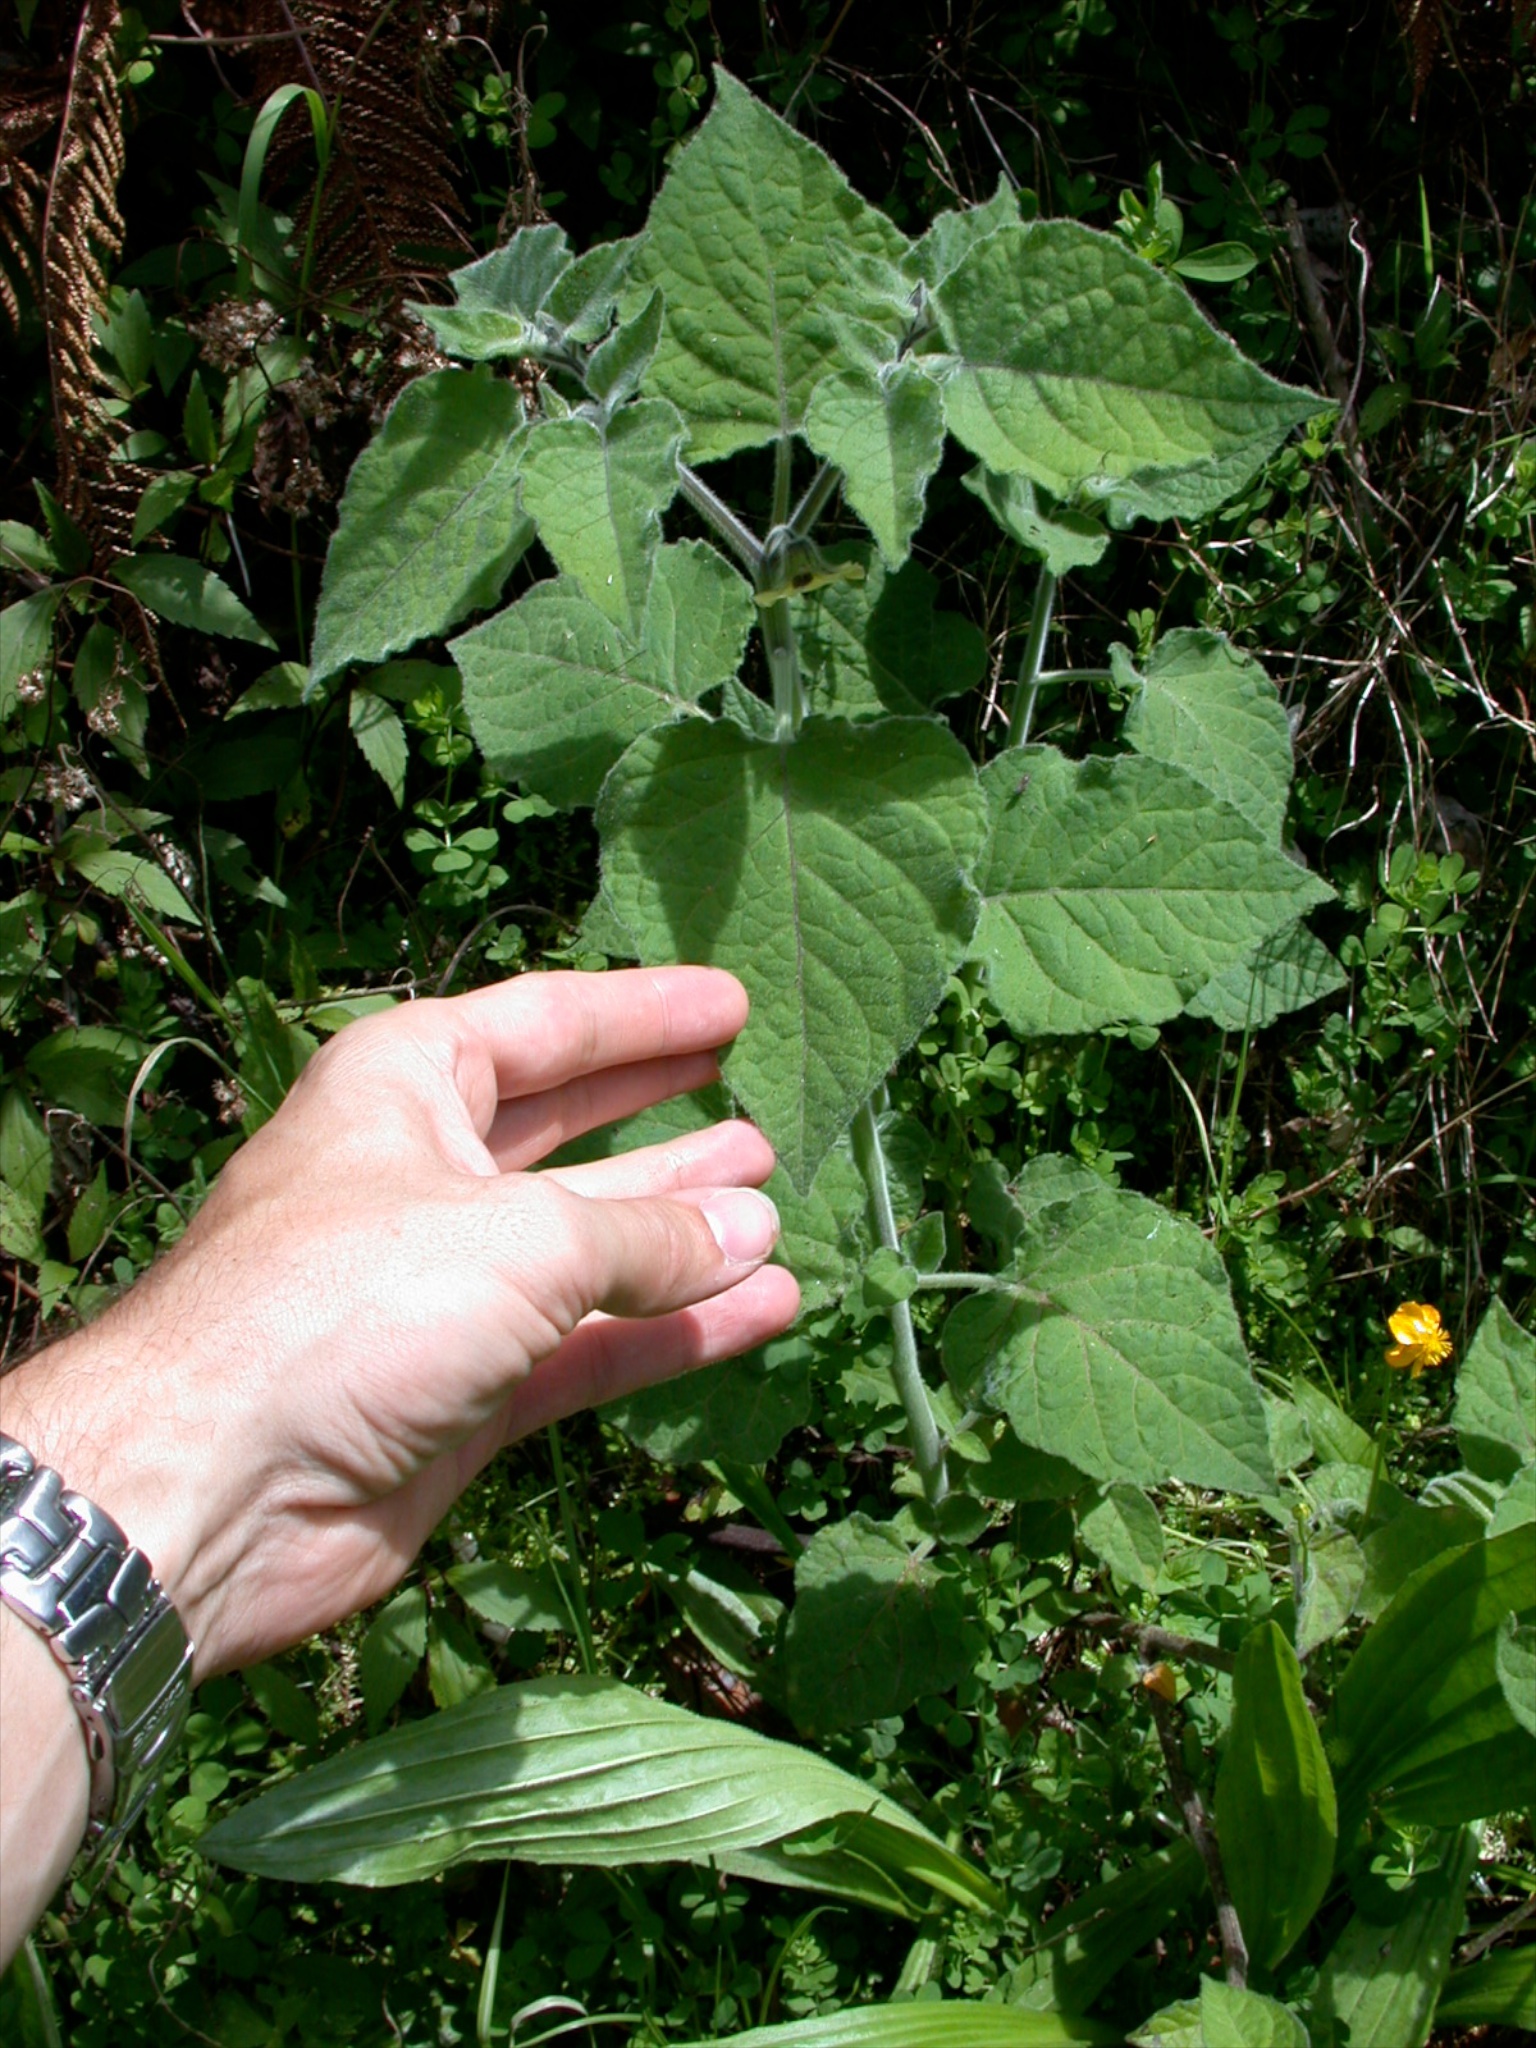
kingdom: Plantae
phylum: Tracheophyta
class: Magnoliopsida
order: Solanales
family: Solanaceae
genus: Physalis
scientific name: Physalis peruviana
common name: Cape-gooseberry
